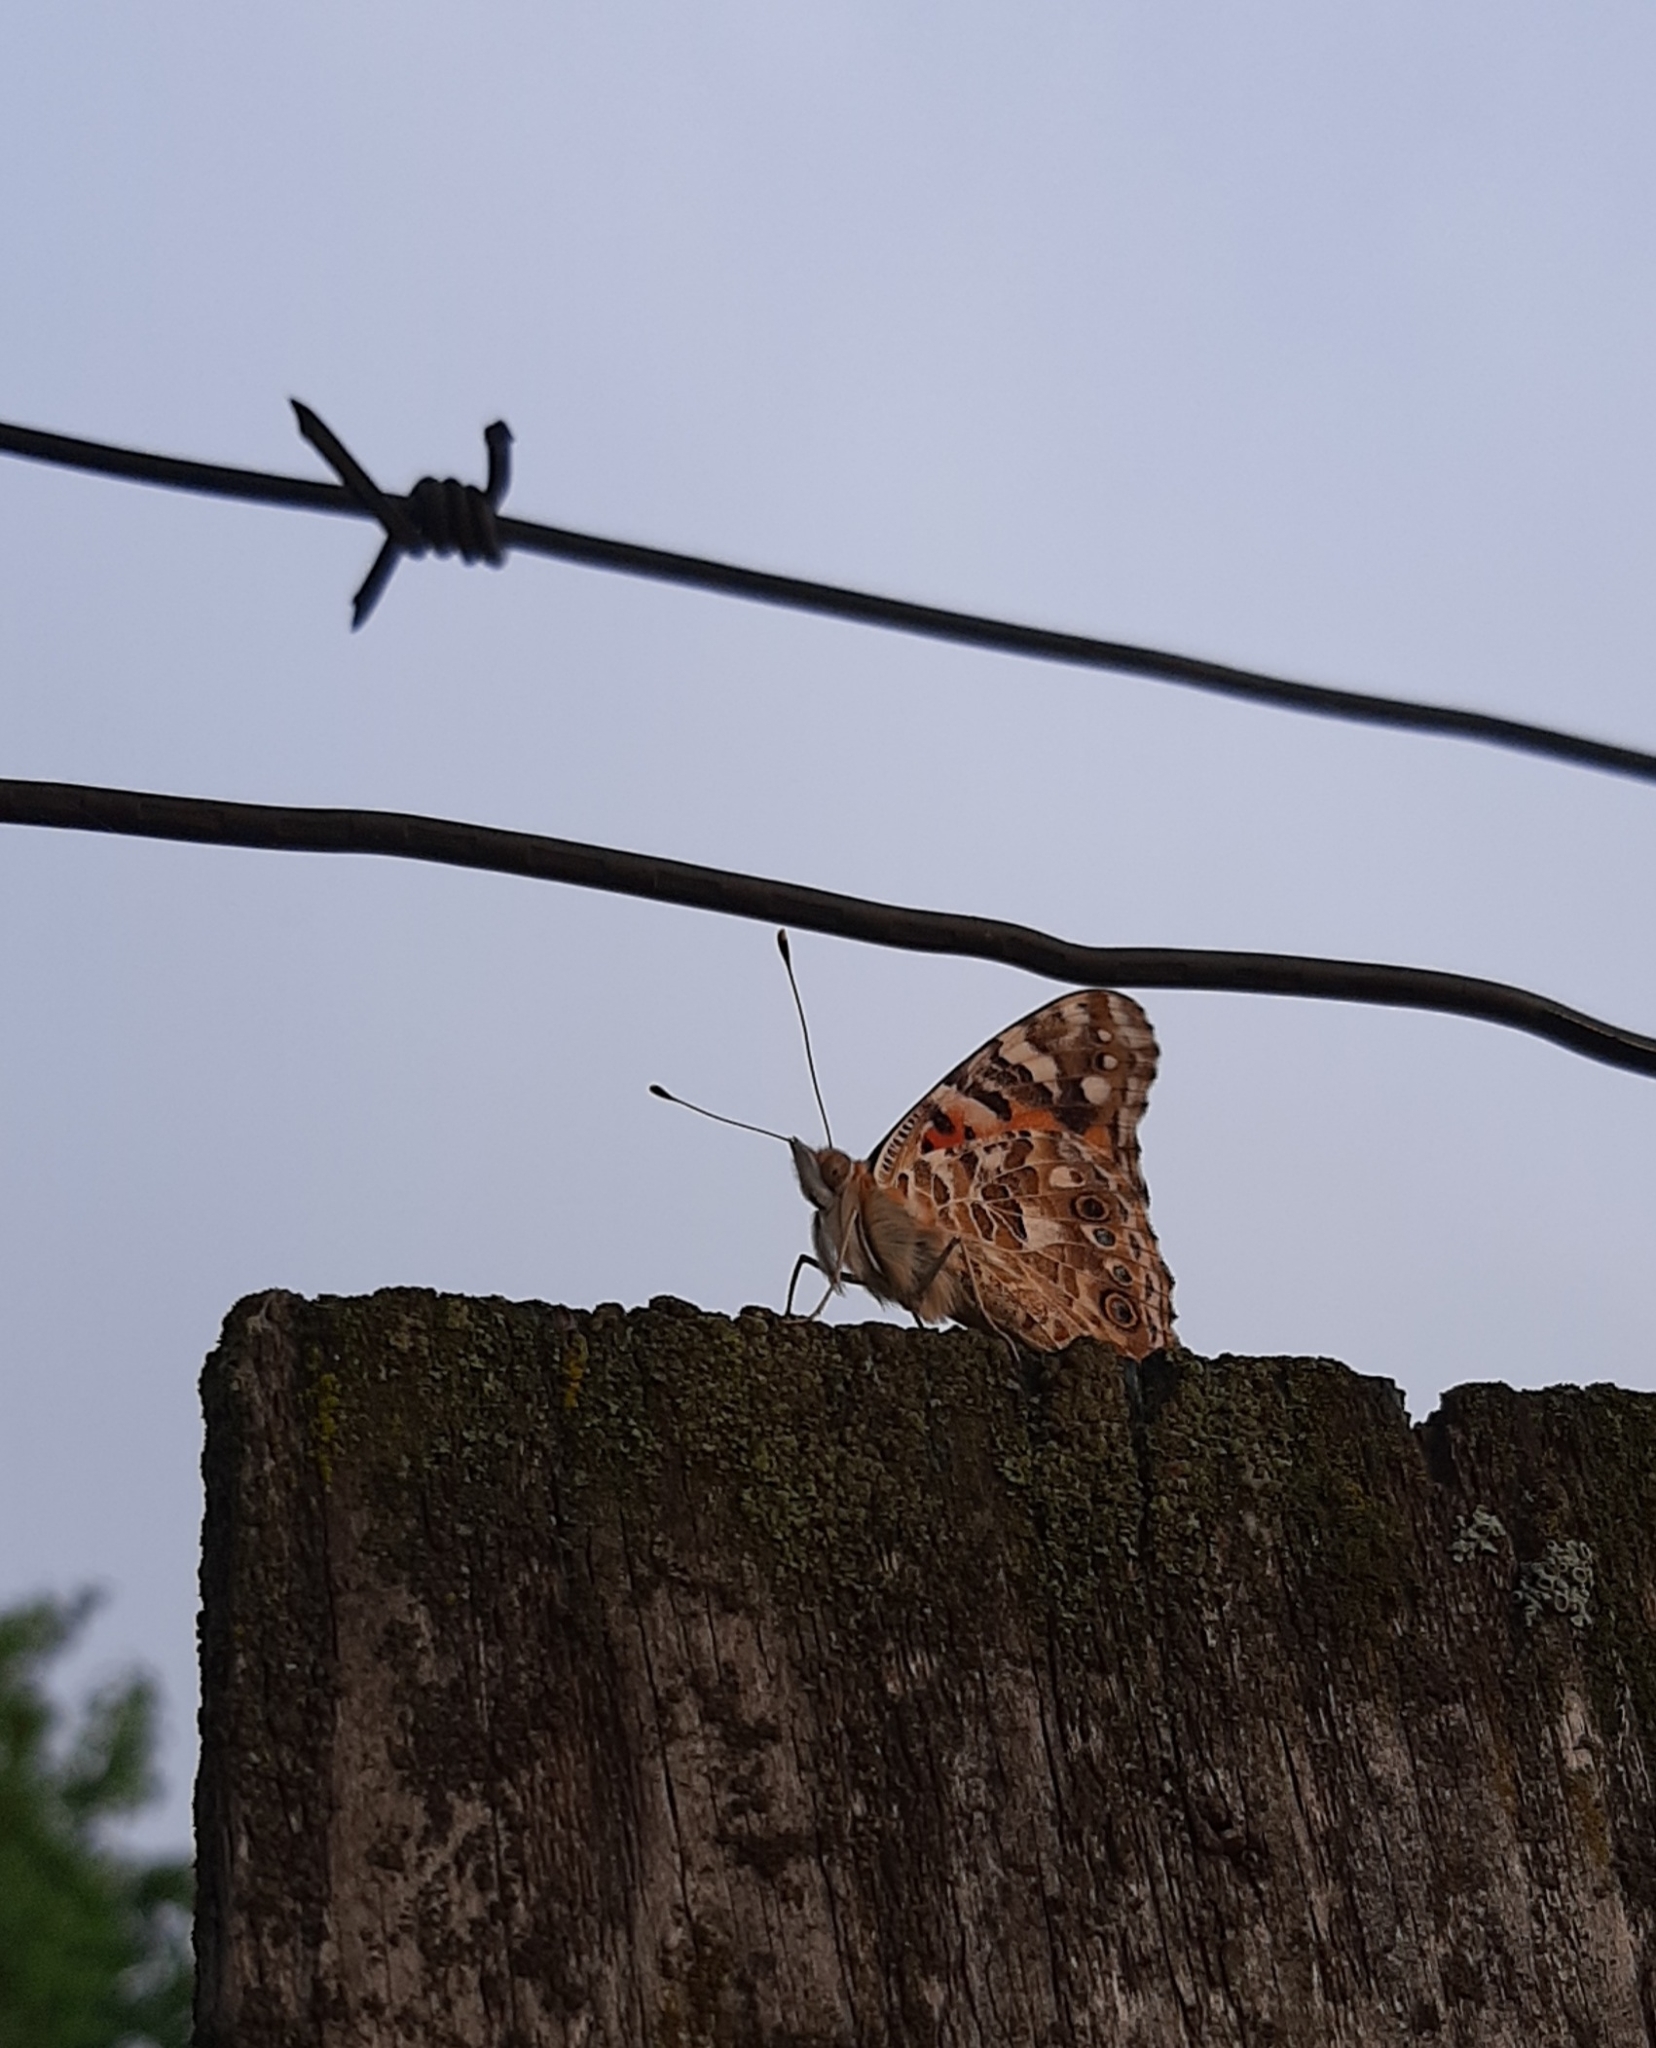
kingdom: Animalia
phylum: Arthropoda
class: Insecta
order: Lepidoptera
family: Nymphalidae
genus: Vanessa
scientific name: Vanessa cardui
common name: Painted lady
